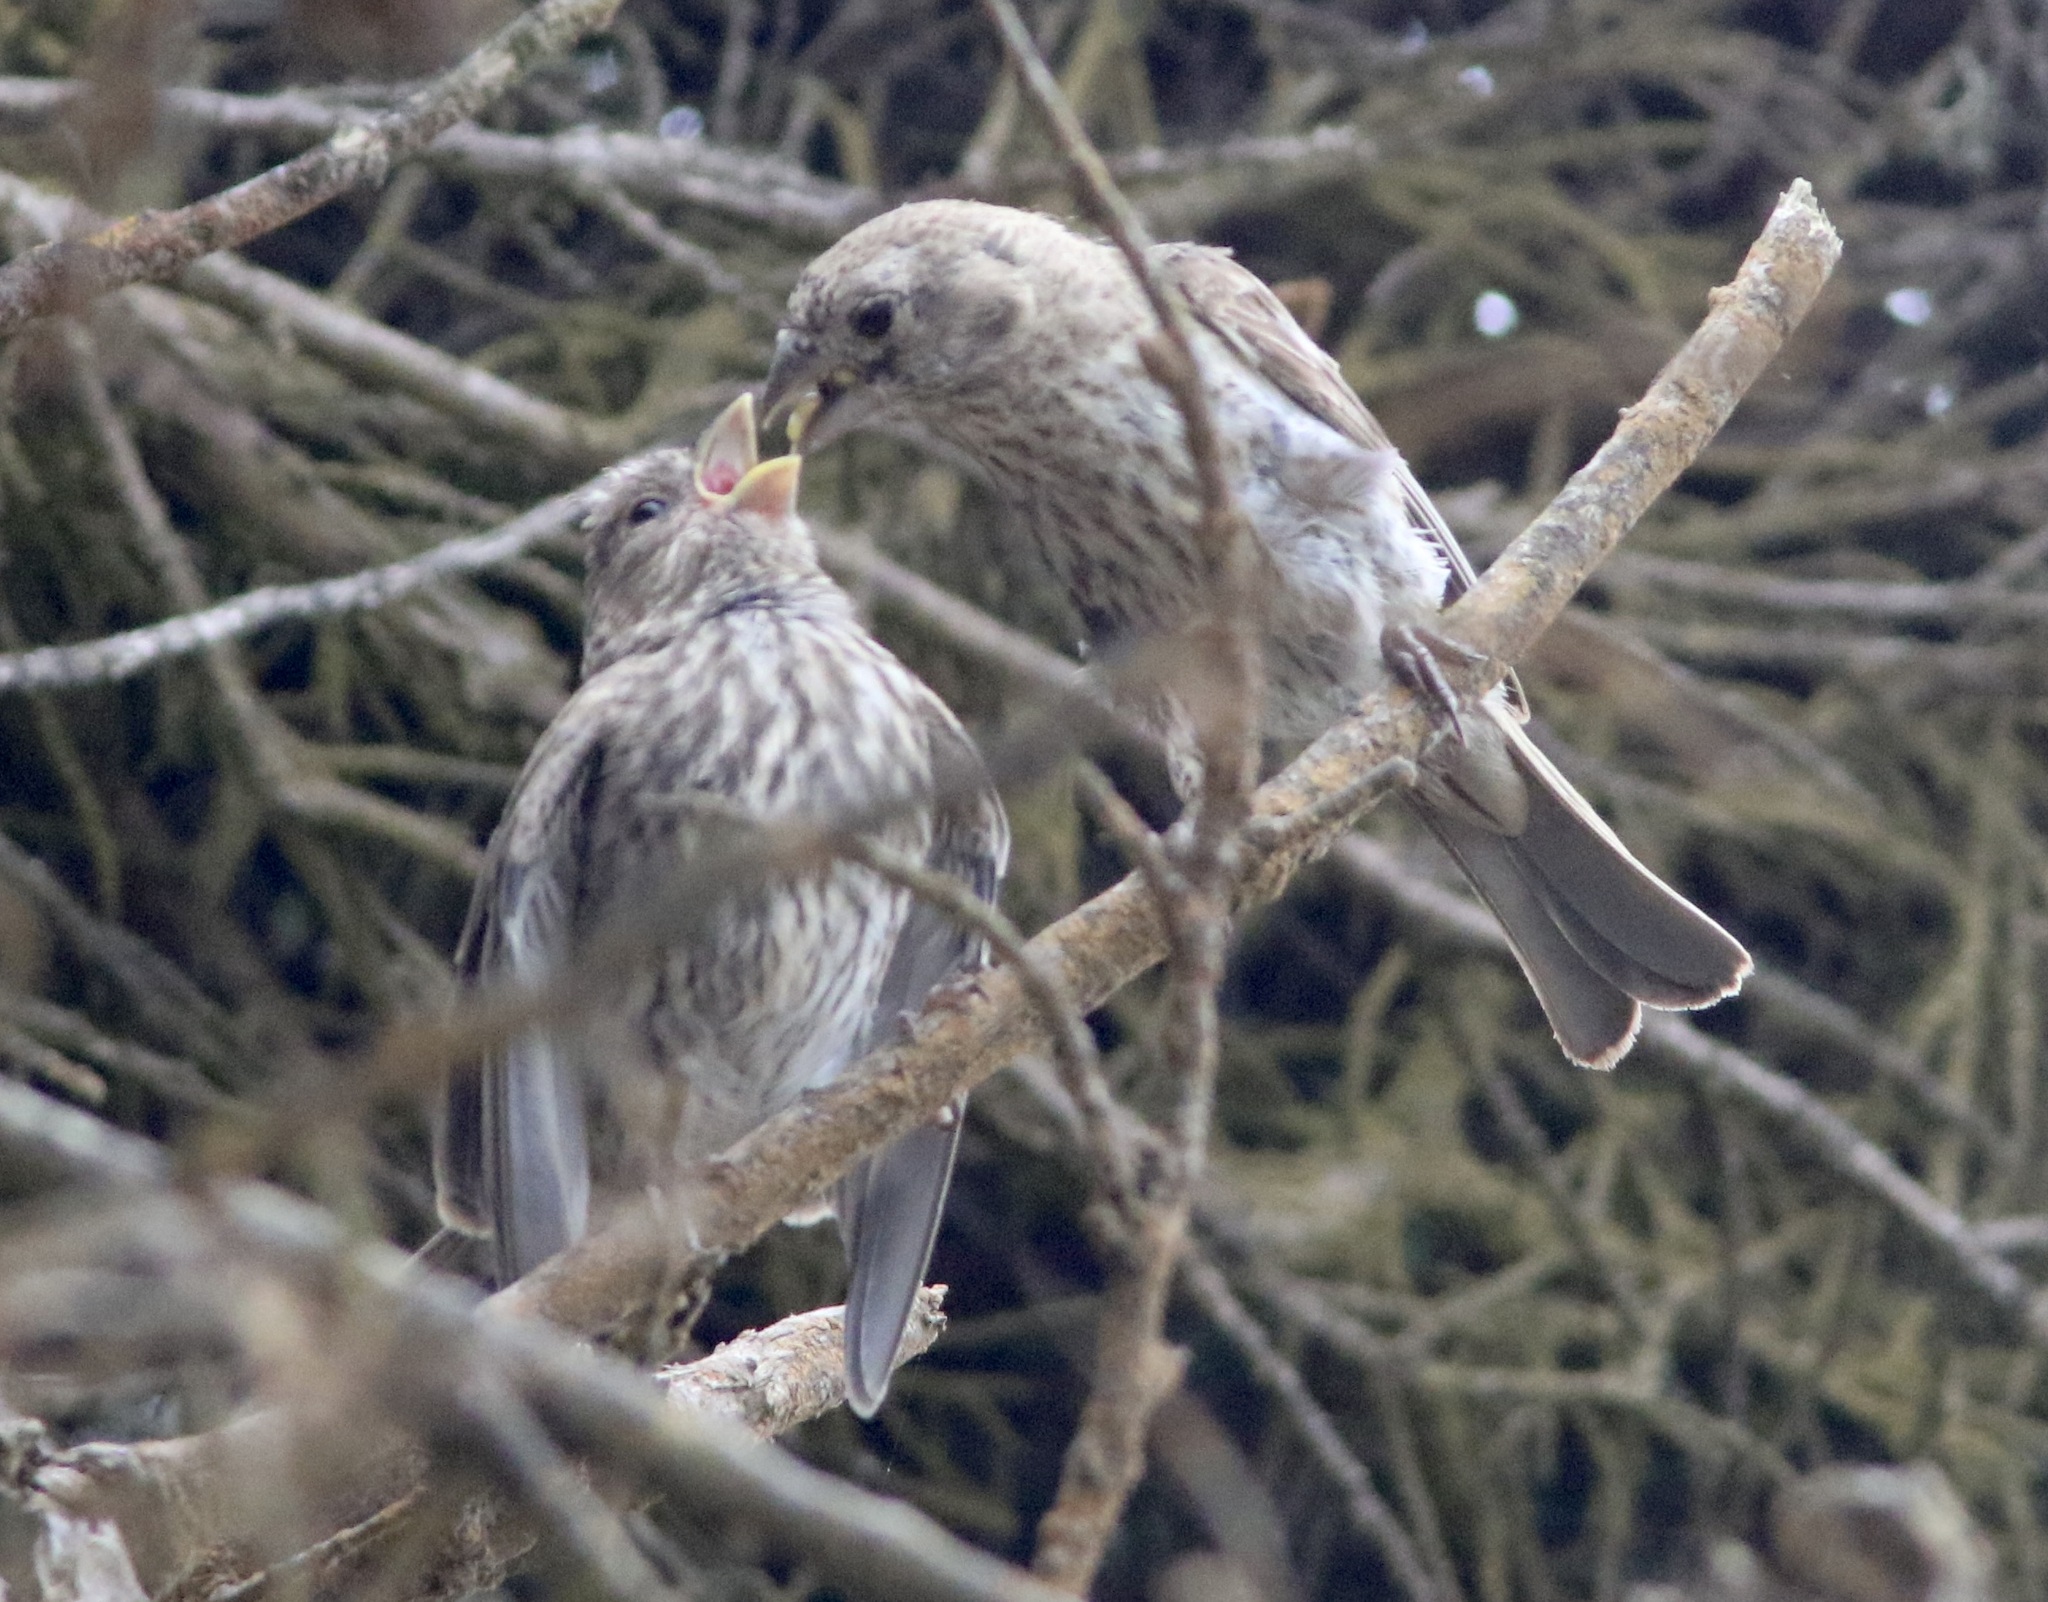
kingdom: Animalia
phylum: Chordata
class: Aves
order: Passeriformes
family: Fringillidae
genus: Haemorhous
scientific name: Haemorhous mexicanus
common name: House finch
